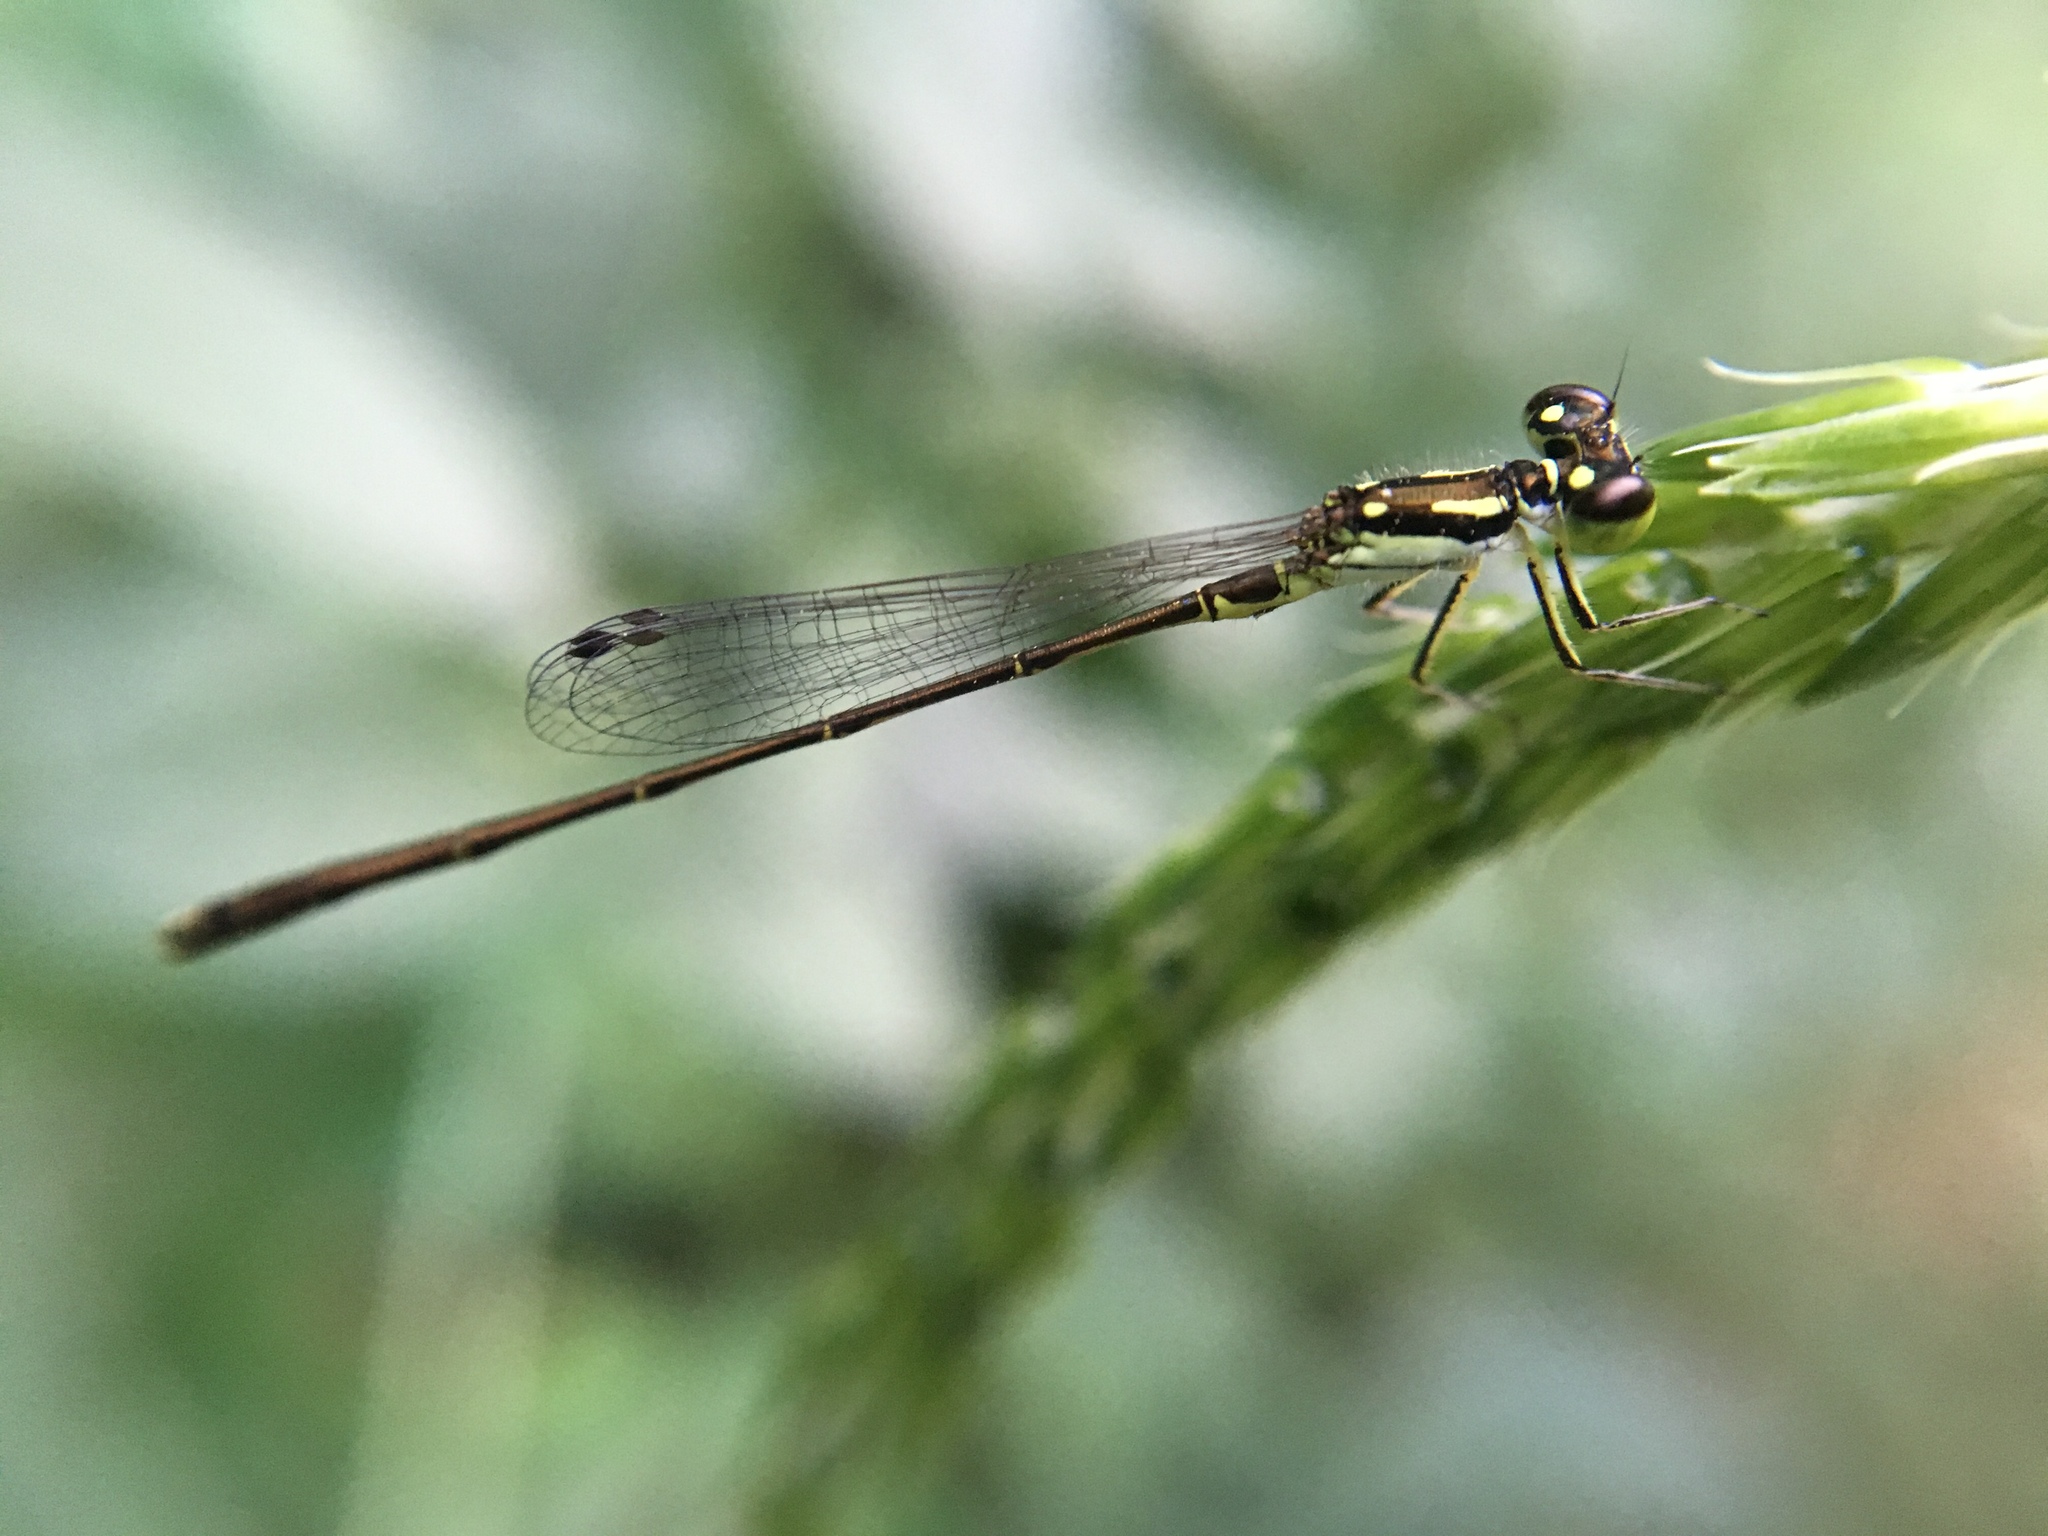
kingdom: Animalia
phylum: Arthropoda
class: Insecta
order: Odonata
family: Coenagrionidae
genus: Ischnura
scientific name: Ischnura posita
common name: Fragile forktail
